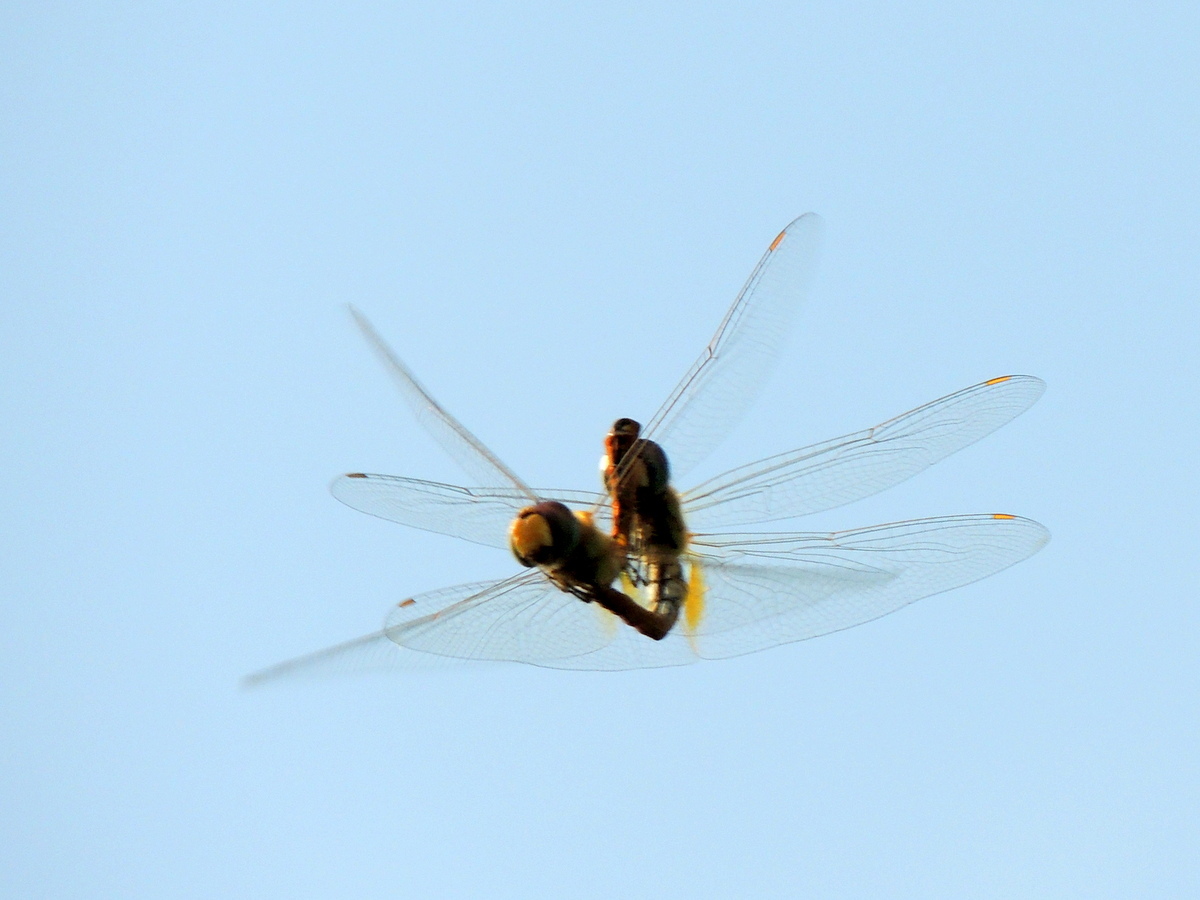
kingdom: Animalia
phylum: Arthropoda
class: Insecta
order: Odonata
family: Libellulidae
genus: Pantala
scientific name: Pantala flavescens
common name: Wandering glider
